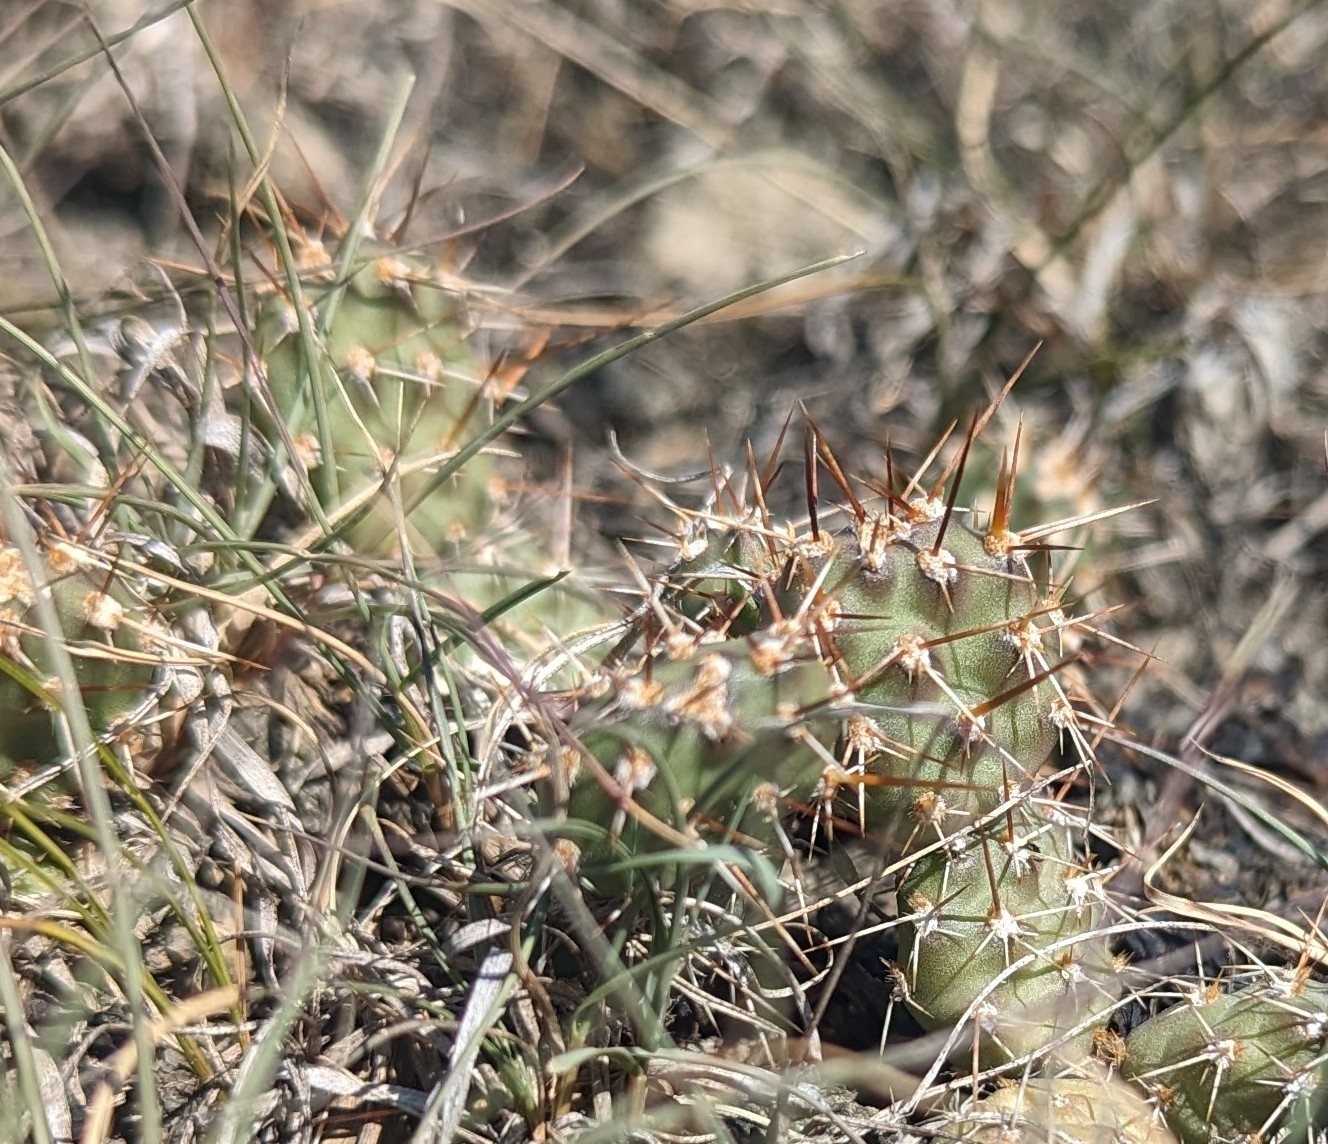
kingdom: Plantae
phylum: Tracheophyta
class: Magnoliopsida
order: Caryophyllales
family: Cactaceae
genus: Opuntia
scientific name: Opuntia fragilis
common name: Brittle cactus
